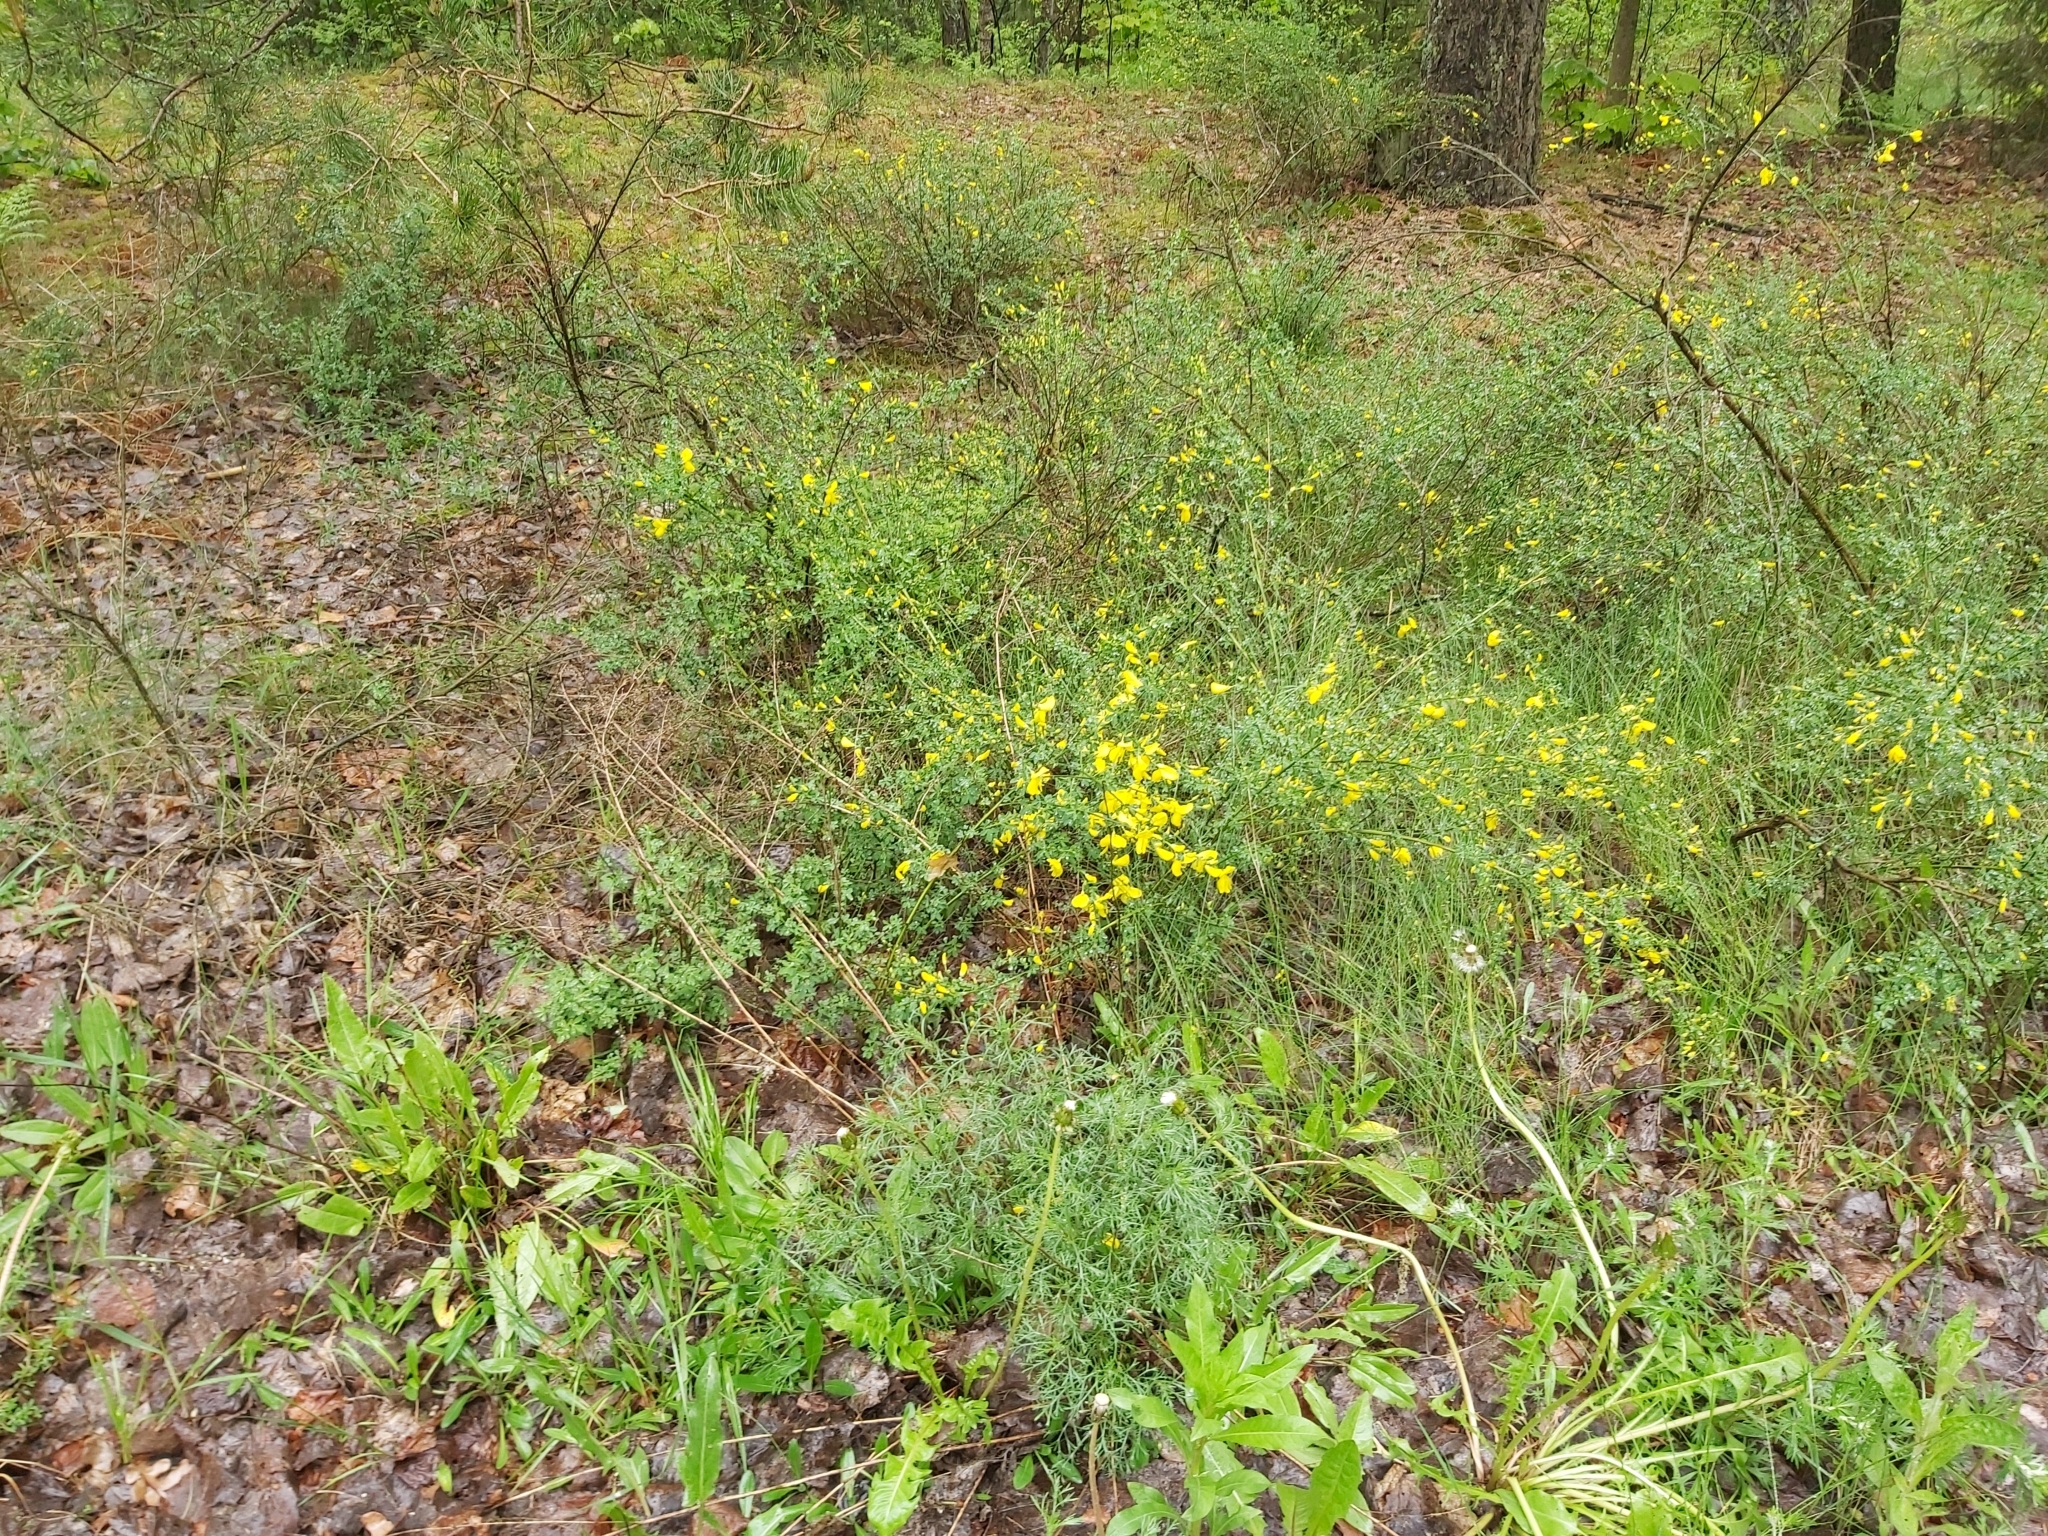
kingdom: Plantae
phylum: Tracheophyta
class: Magnoliopsida
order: Fabales
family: Fabaceae
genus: Cytisus
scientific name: Cytisus scoparius
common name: Scotch broom
